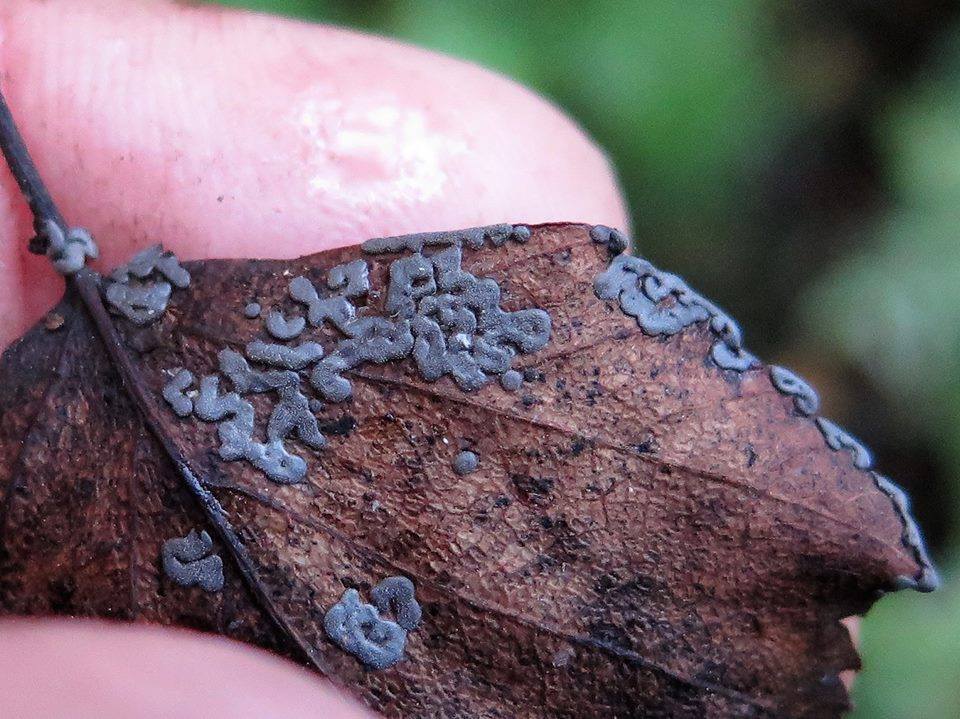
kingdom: Protozoa
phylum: Mycetozoa
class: Myxomycetes
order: Physarales
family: Didymiaceae
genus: Didymium
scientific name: Didymium serpula
